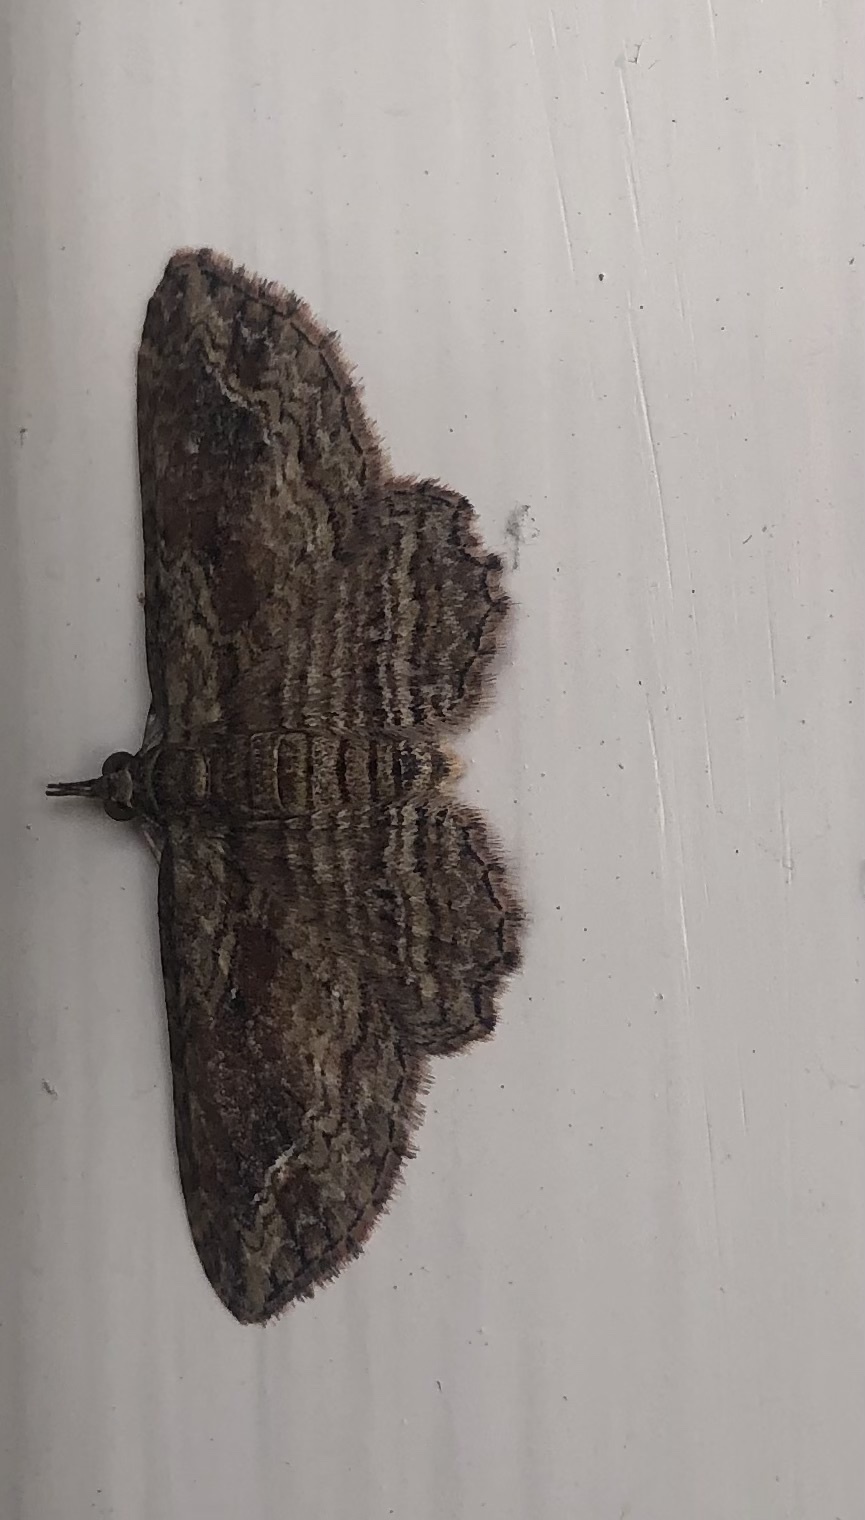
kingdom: Animalia
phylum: Arthropoda
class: Insecta
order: Lepidoptera
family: Geometridae
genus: Chloroclystis
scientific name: Chloroclystis filata
